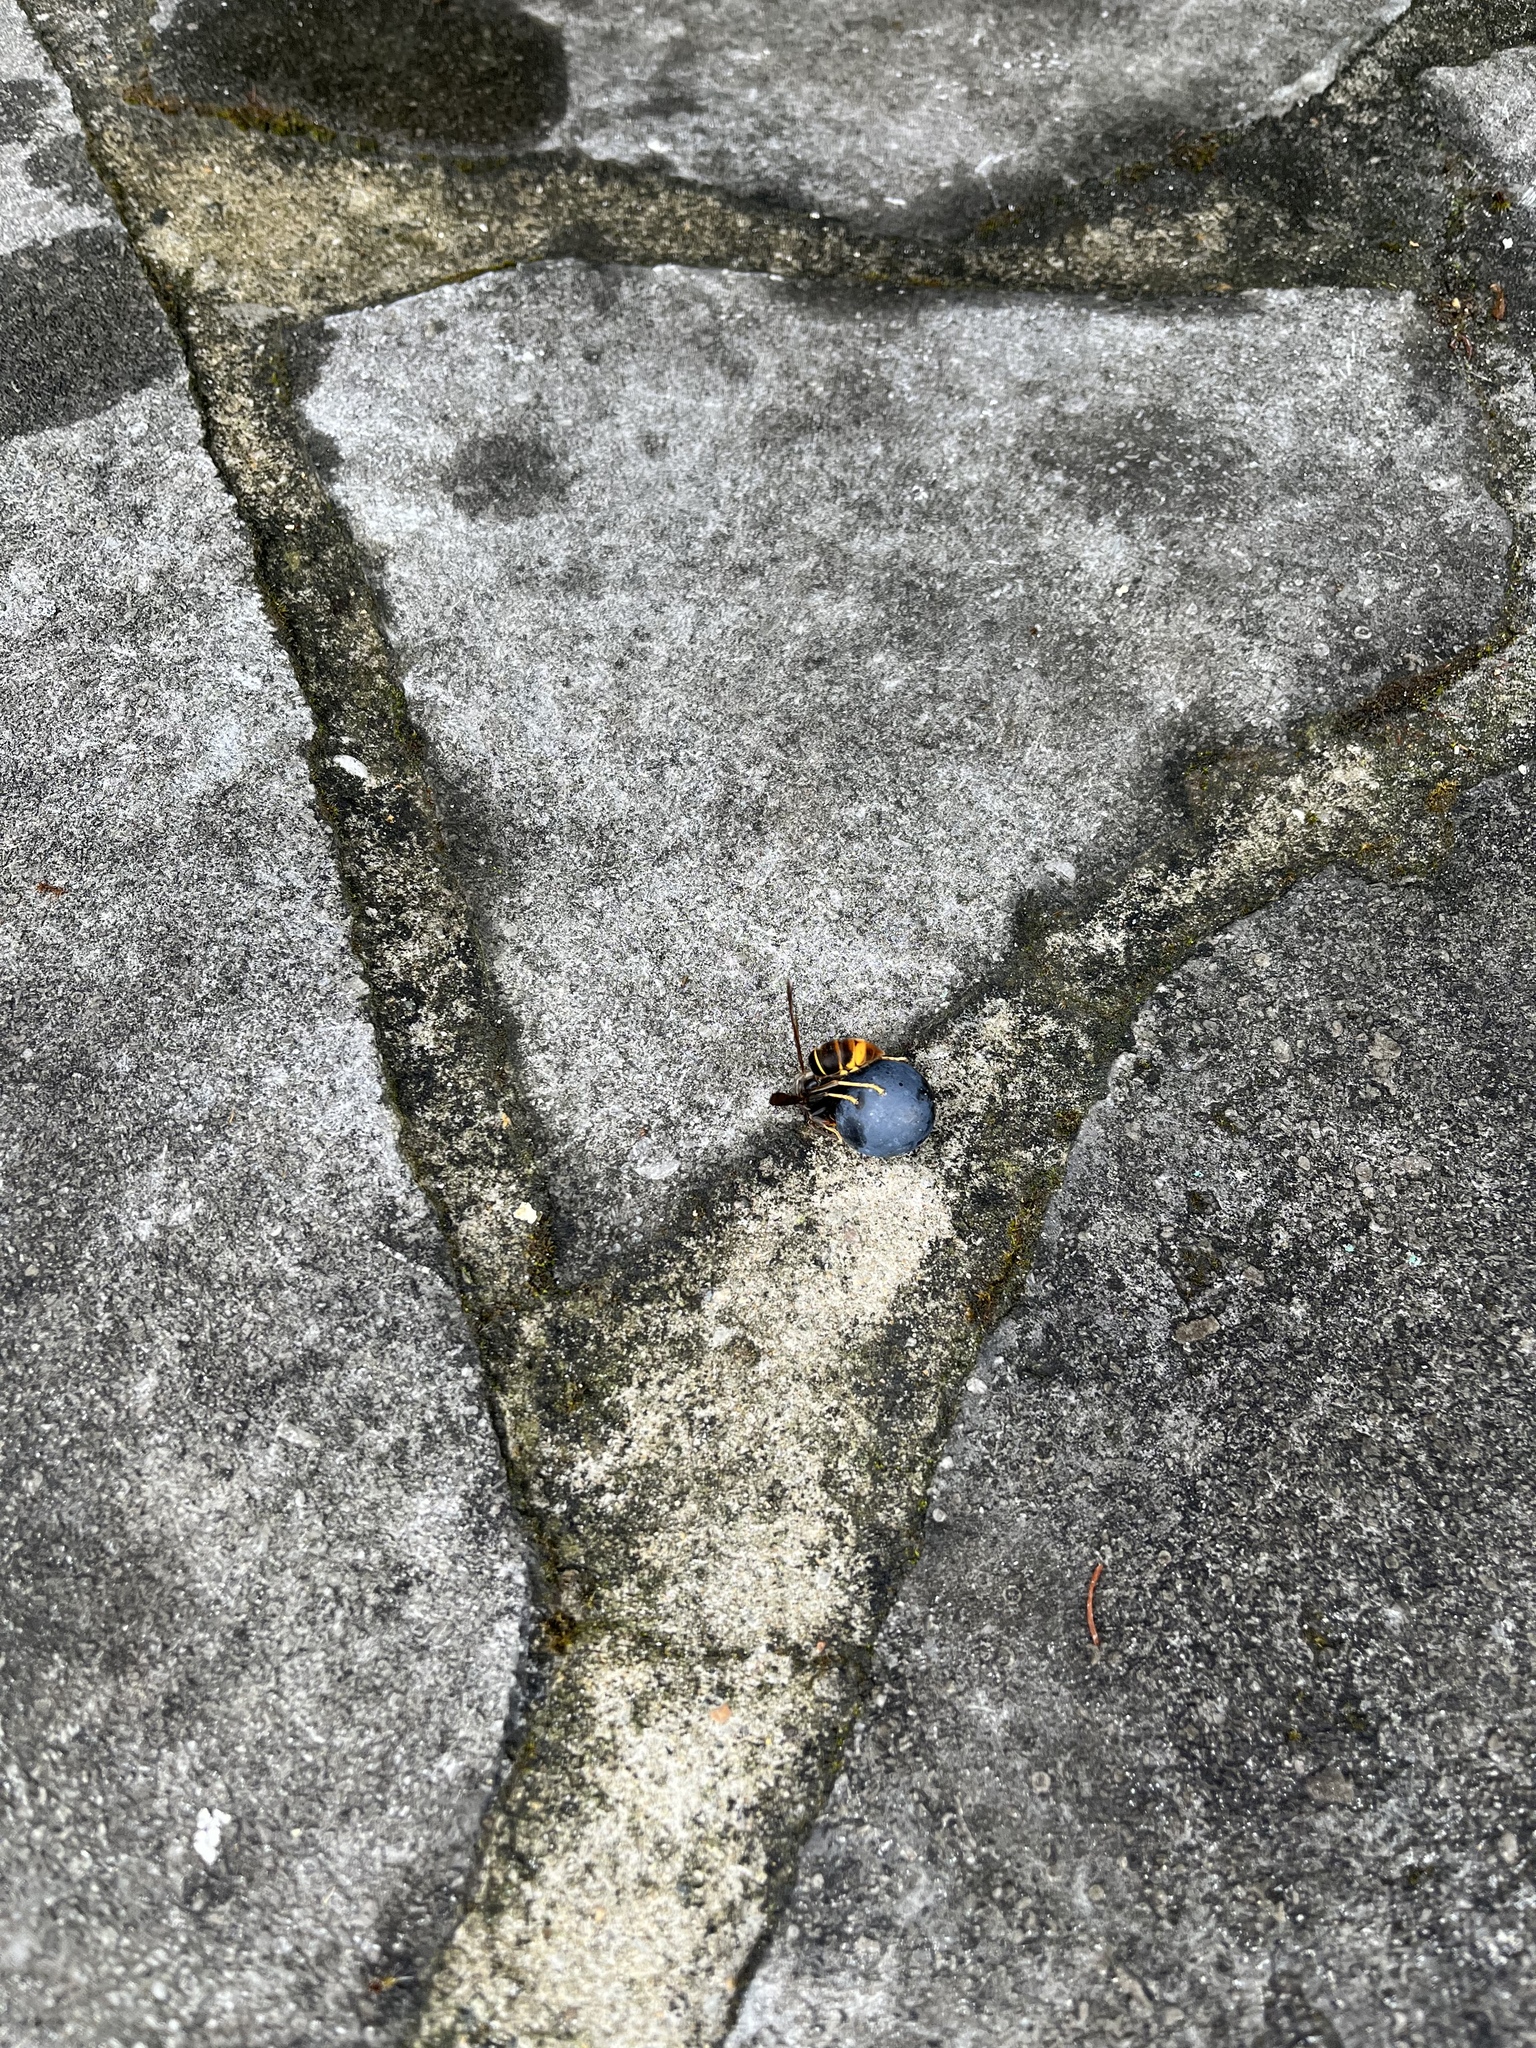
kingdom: Animalia
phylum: Arthropoda
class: Insecta
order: Hymenoptera
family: Vespidae
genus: Vespa
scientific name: Vespa velutina
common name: Asian hornet
